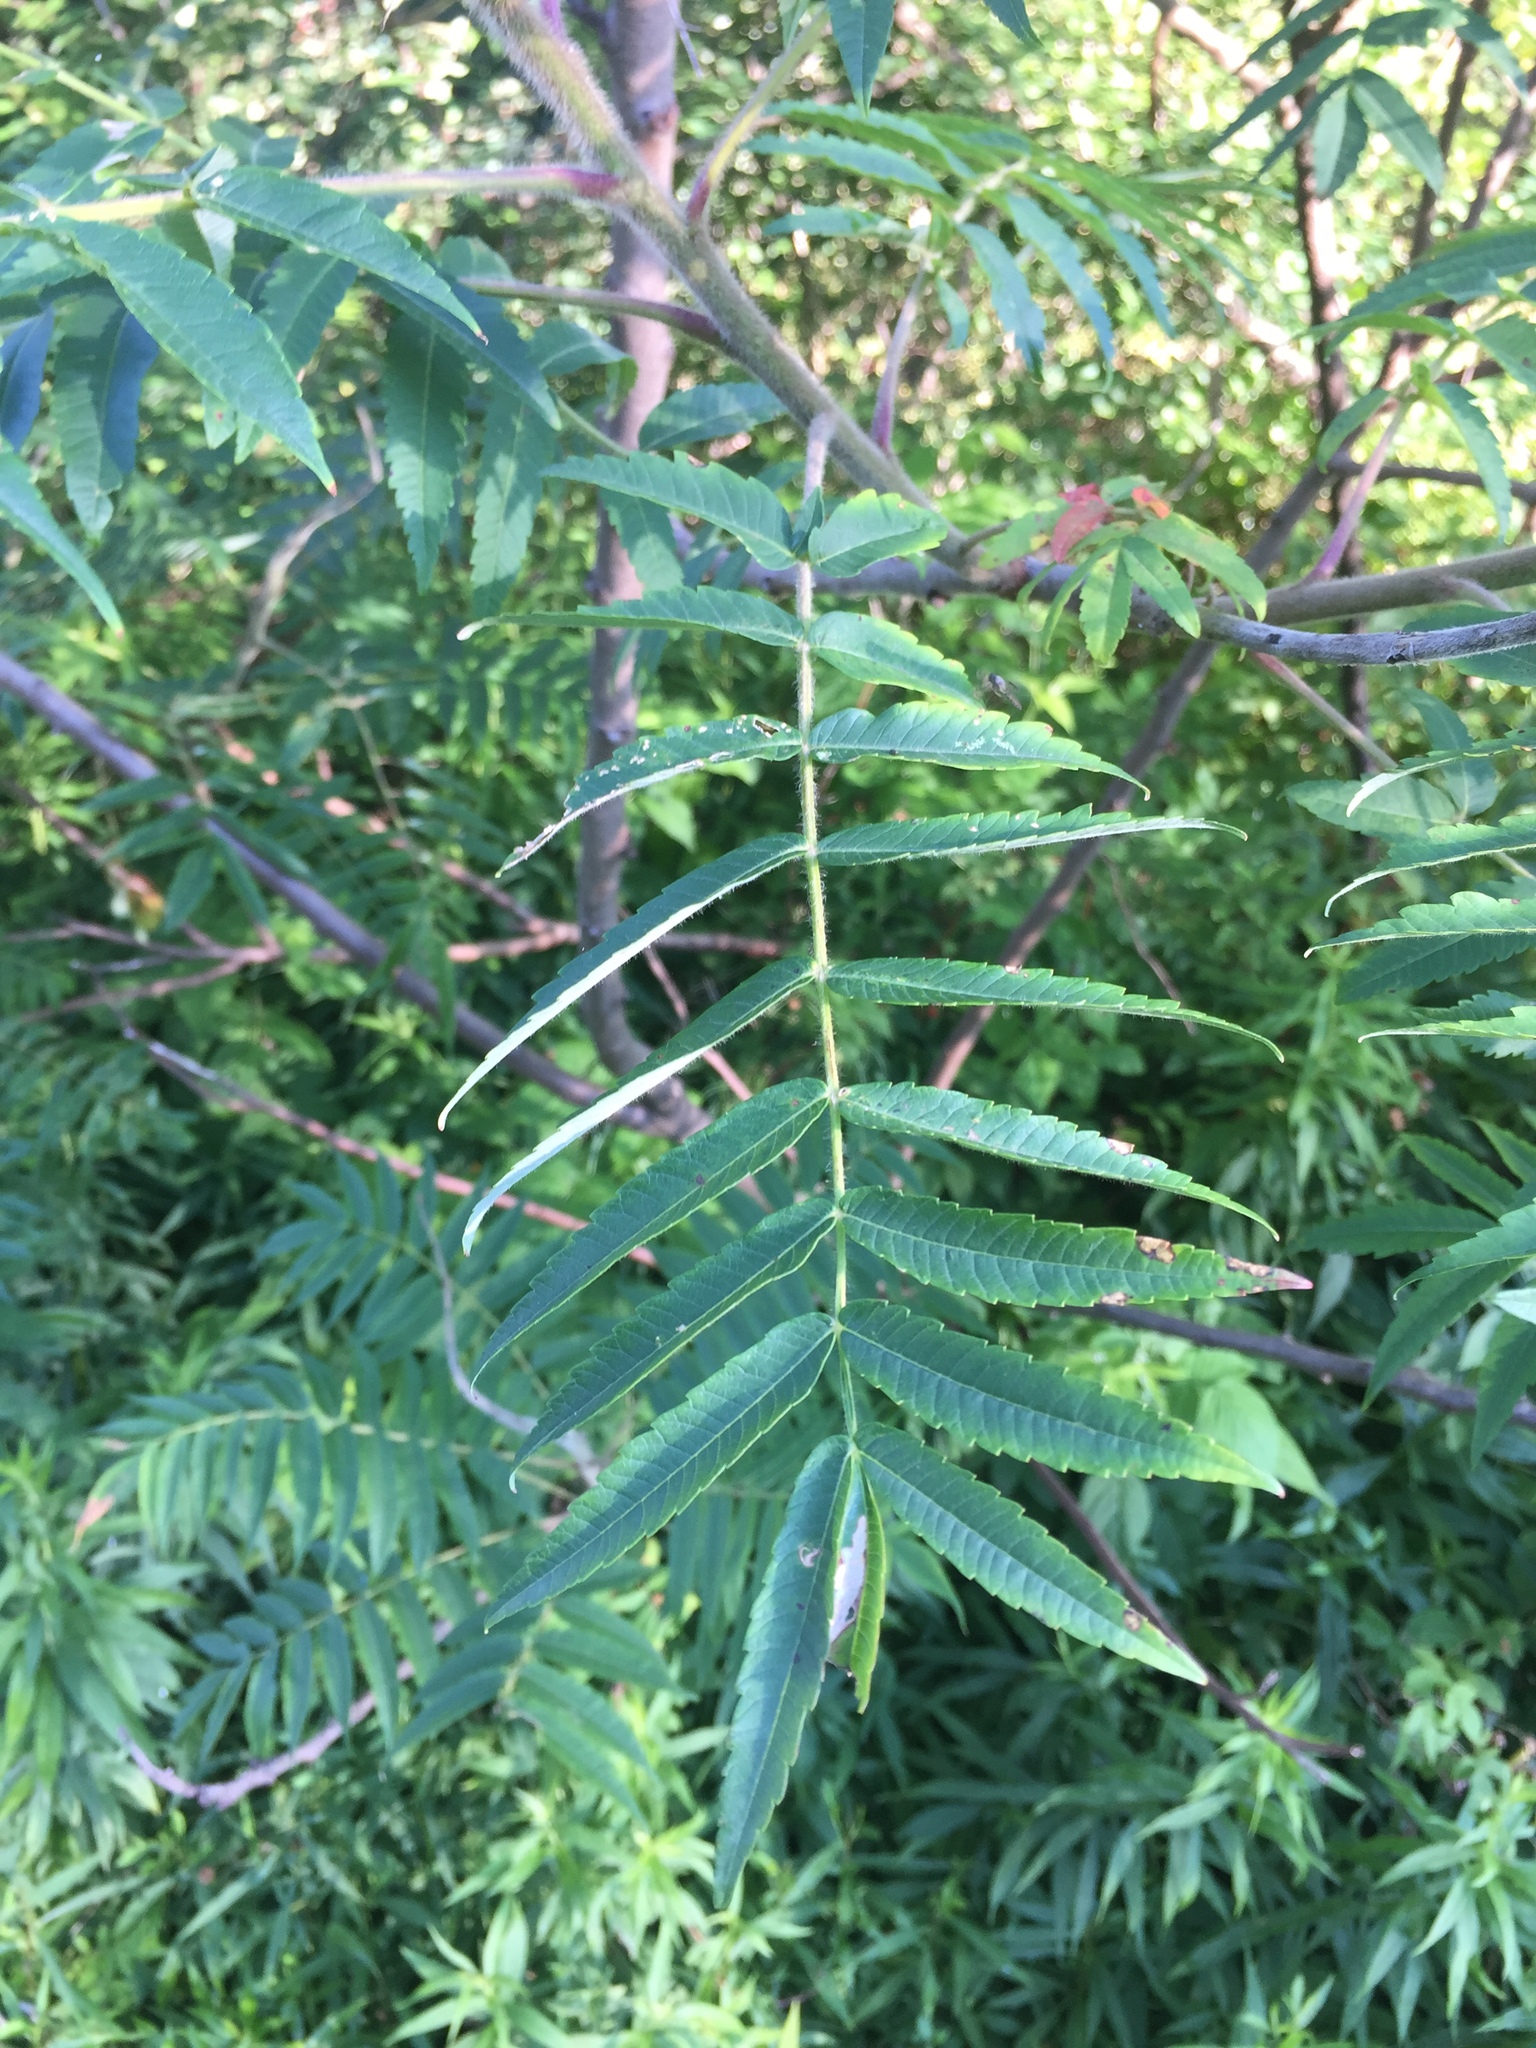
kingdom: Plantae
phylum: Tracheophyta
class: Magnoliopsida
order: Sapindales
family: Anacardiaceae
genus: Rhus
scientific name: Rhus typhina
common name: Staghorn sumac
